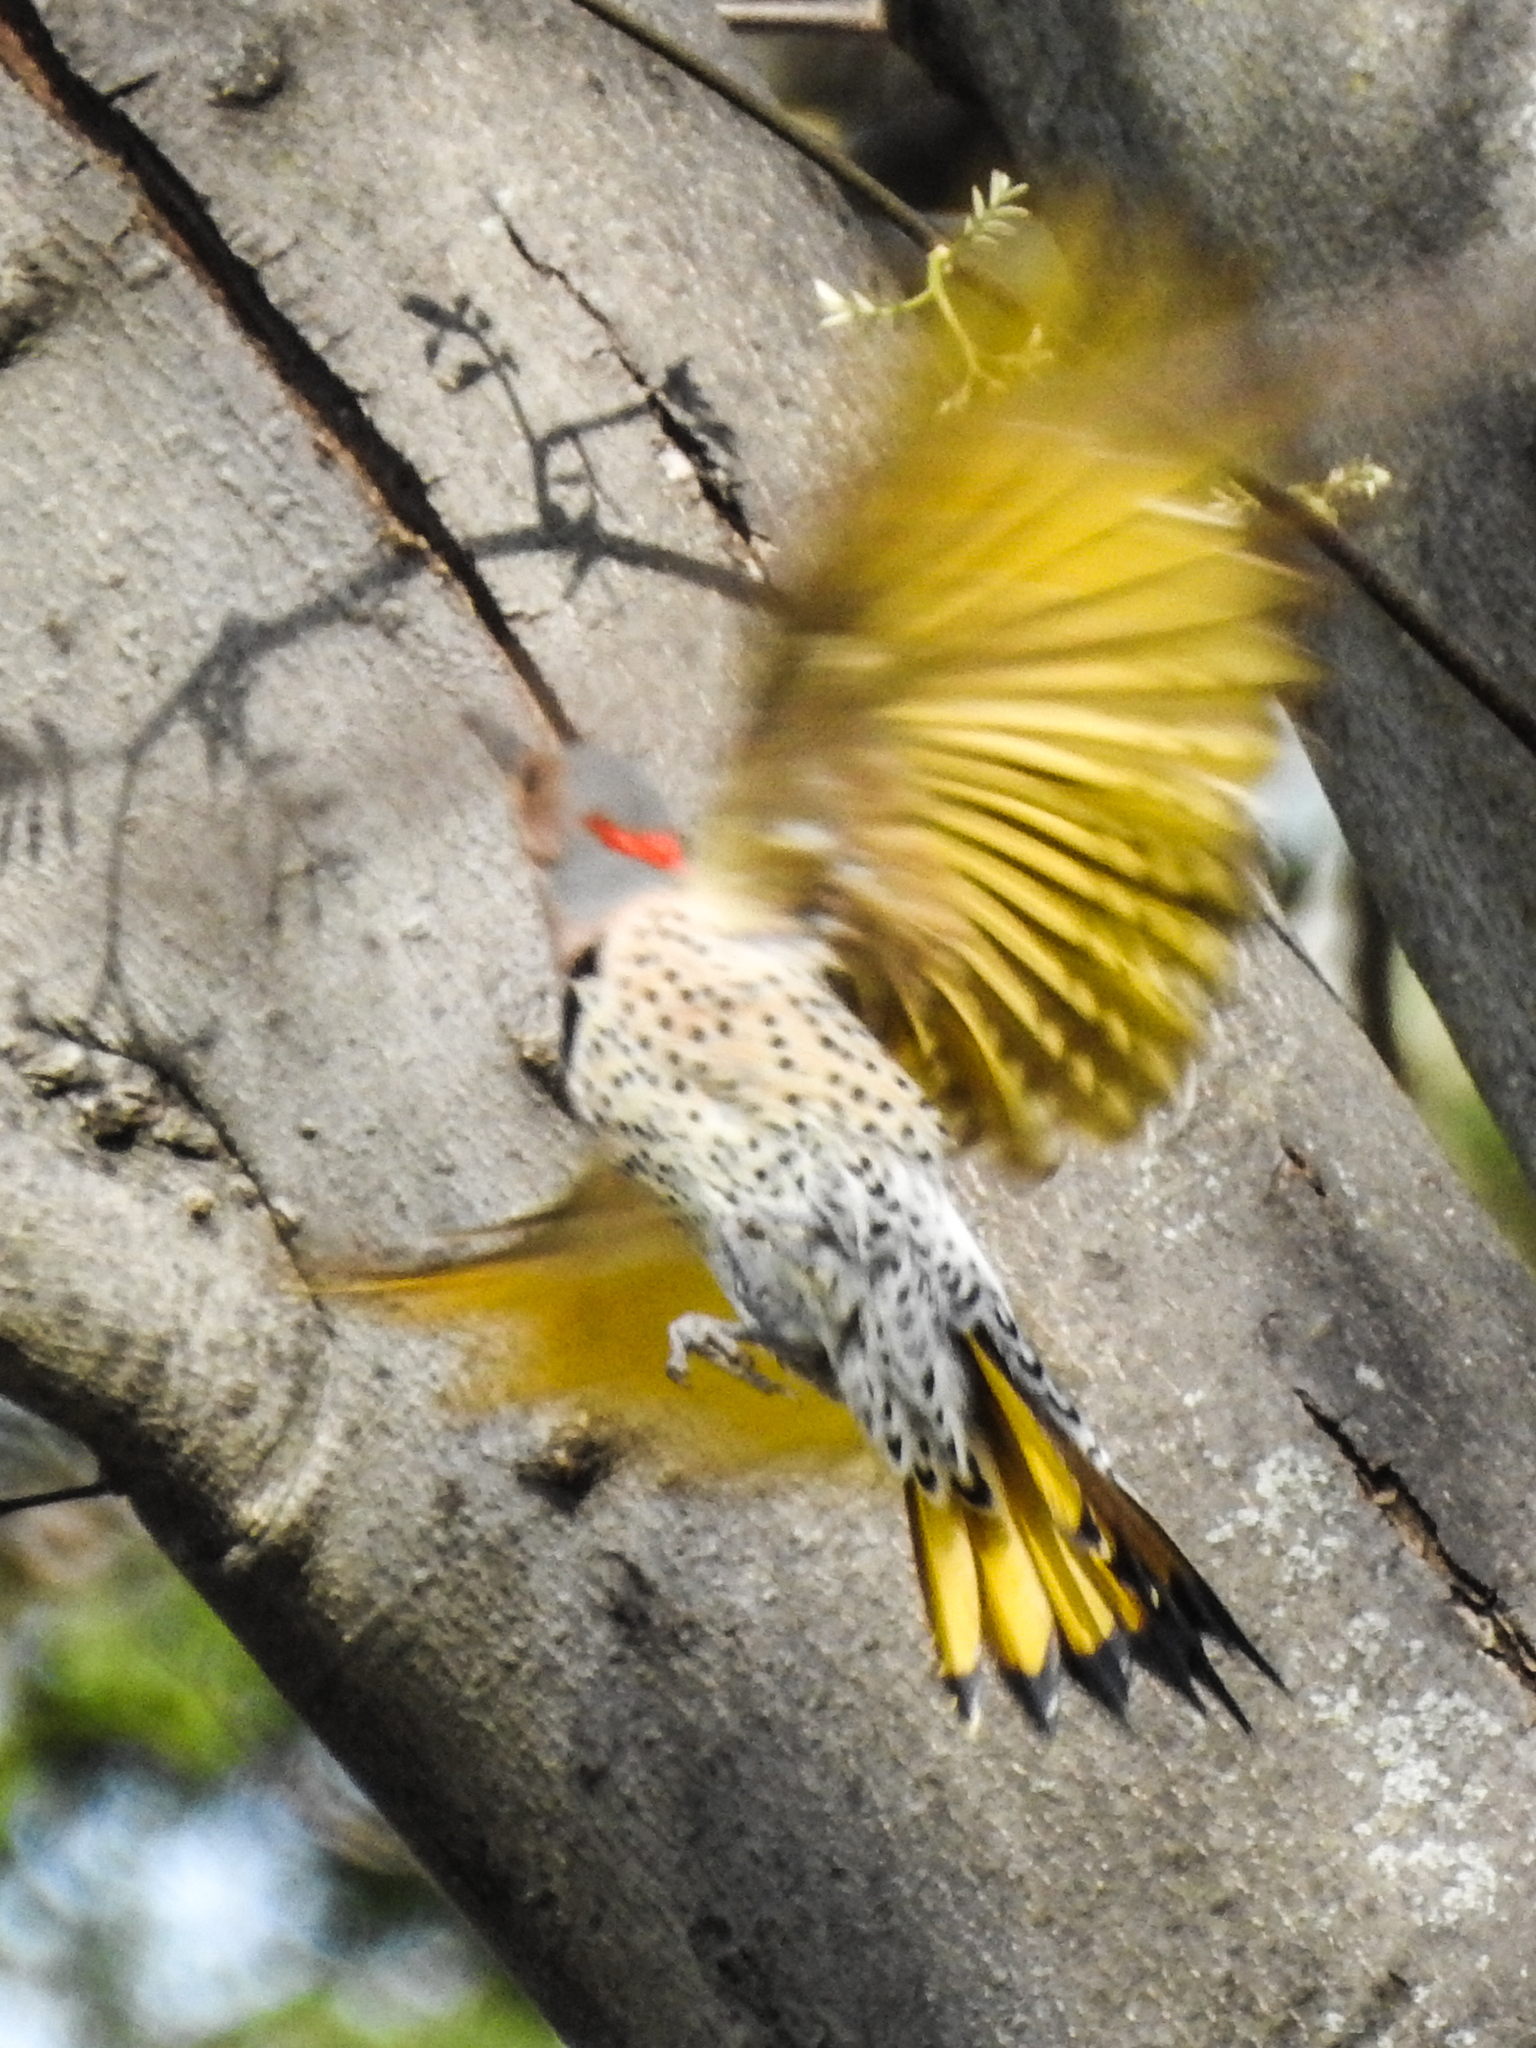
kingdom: Animalia
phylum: Chordata
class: Aves
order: Piciformes
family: Picidae
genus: Colaptes
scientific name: Colaptes auratus
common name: Northern flicker
